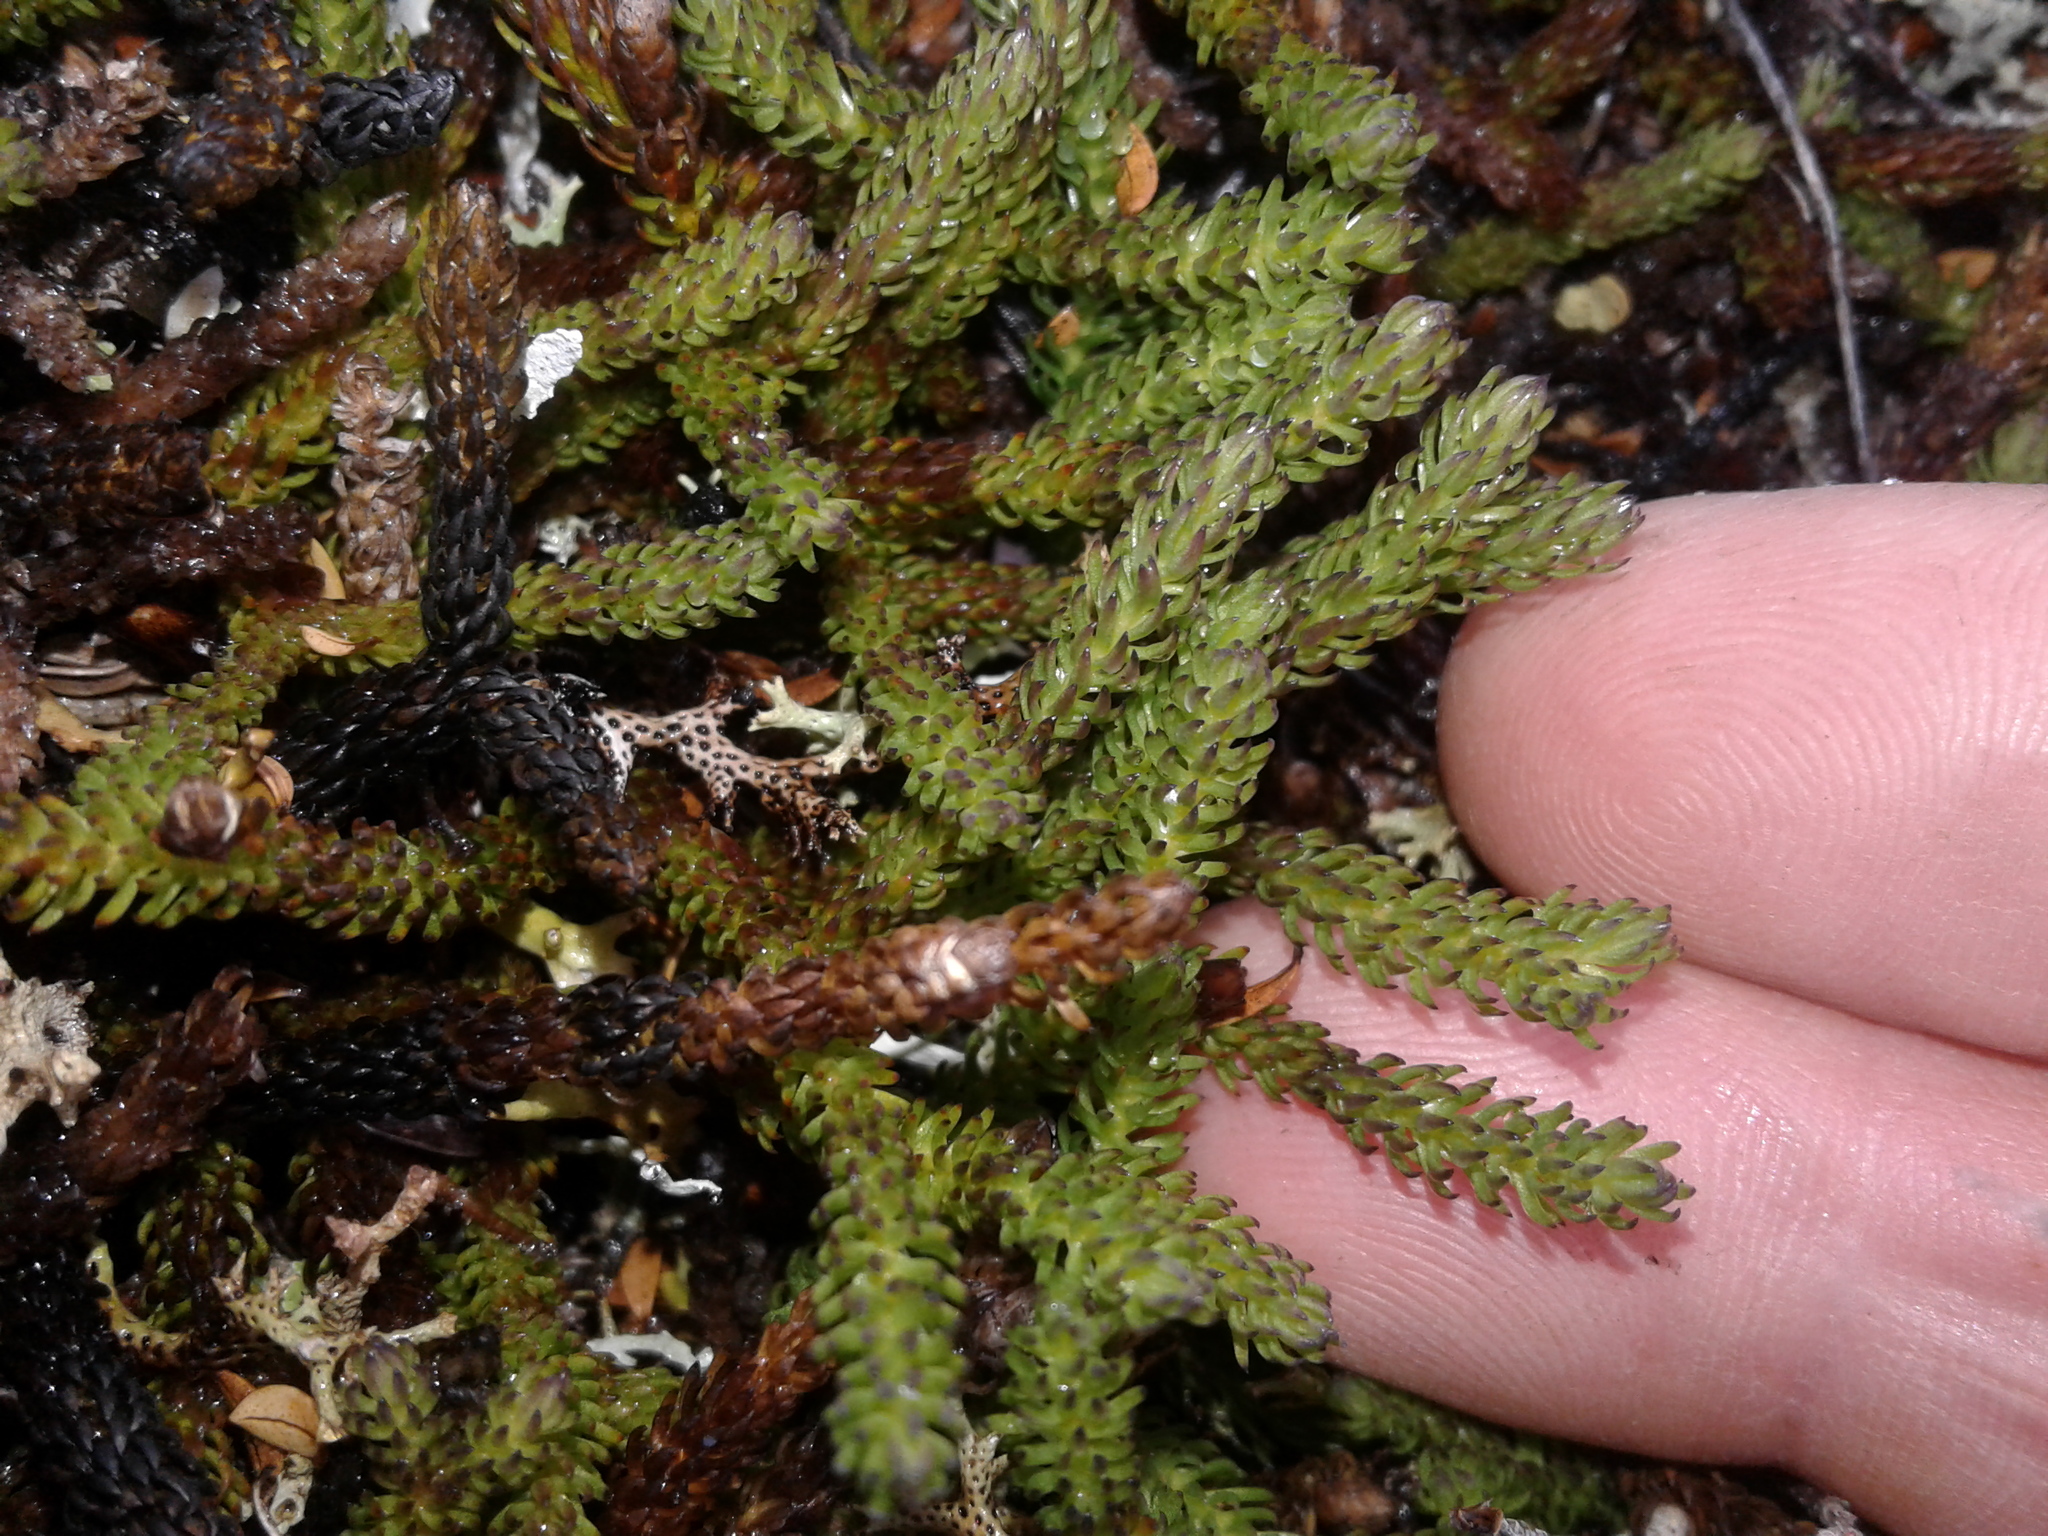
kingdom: Plantae
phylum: Tracheophyta
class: Lycopodiopsida
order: Lycopodiales
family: Lycopodiaceae
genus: Lateristachys
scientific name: Lateristachys diffusa
